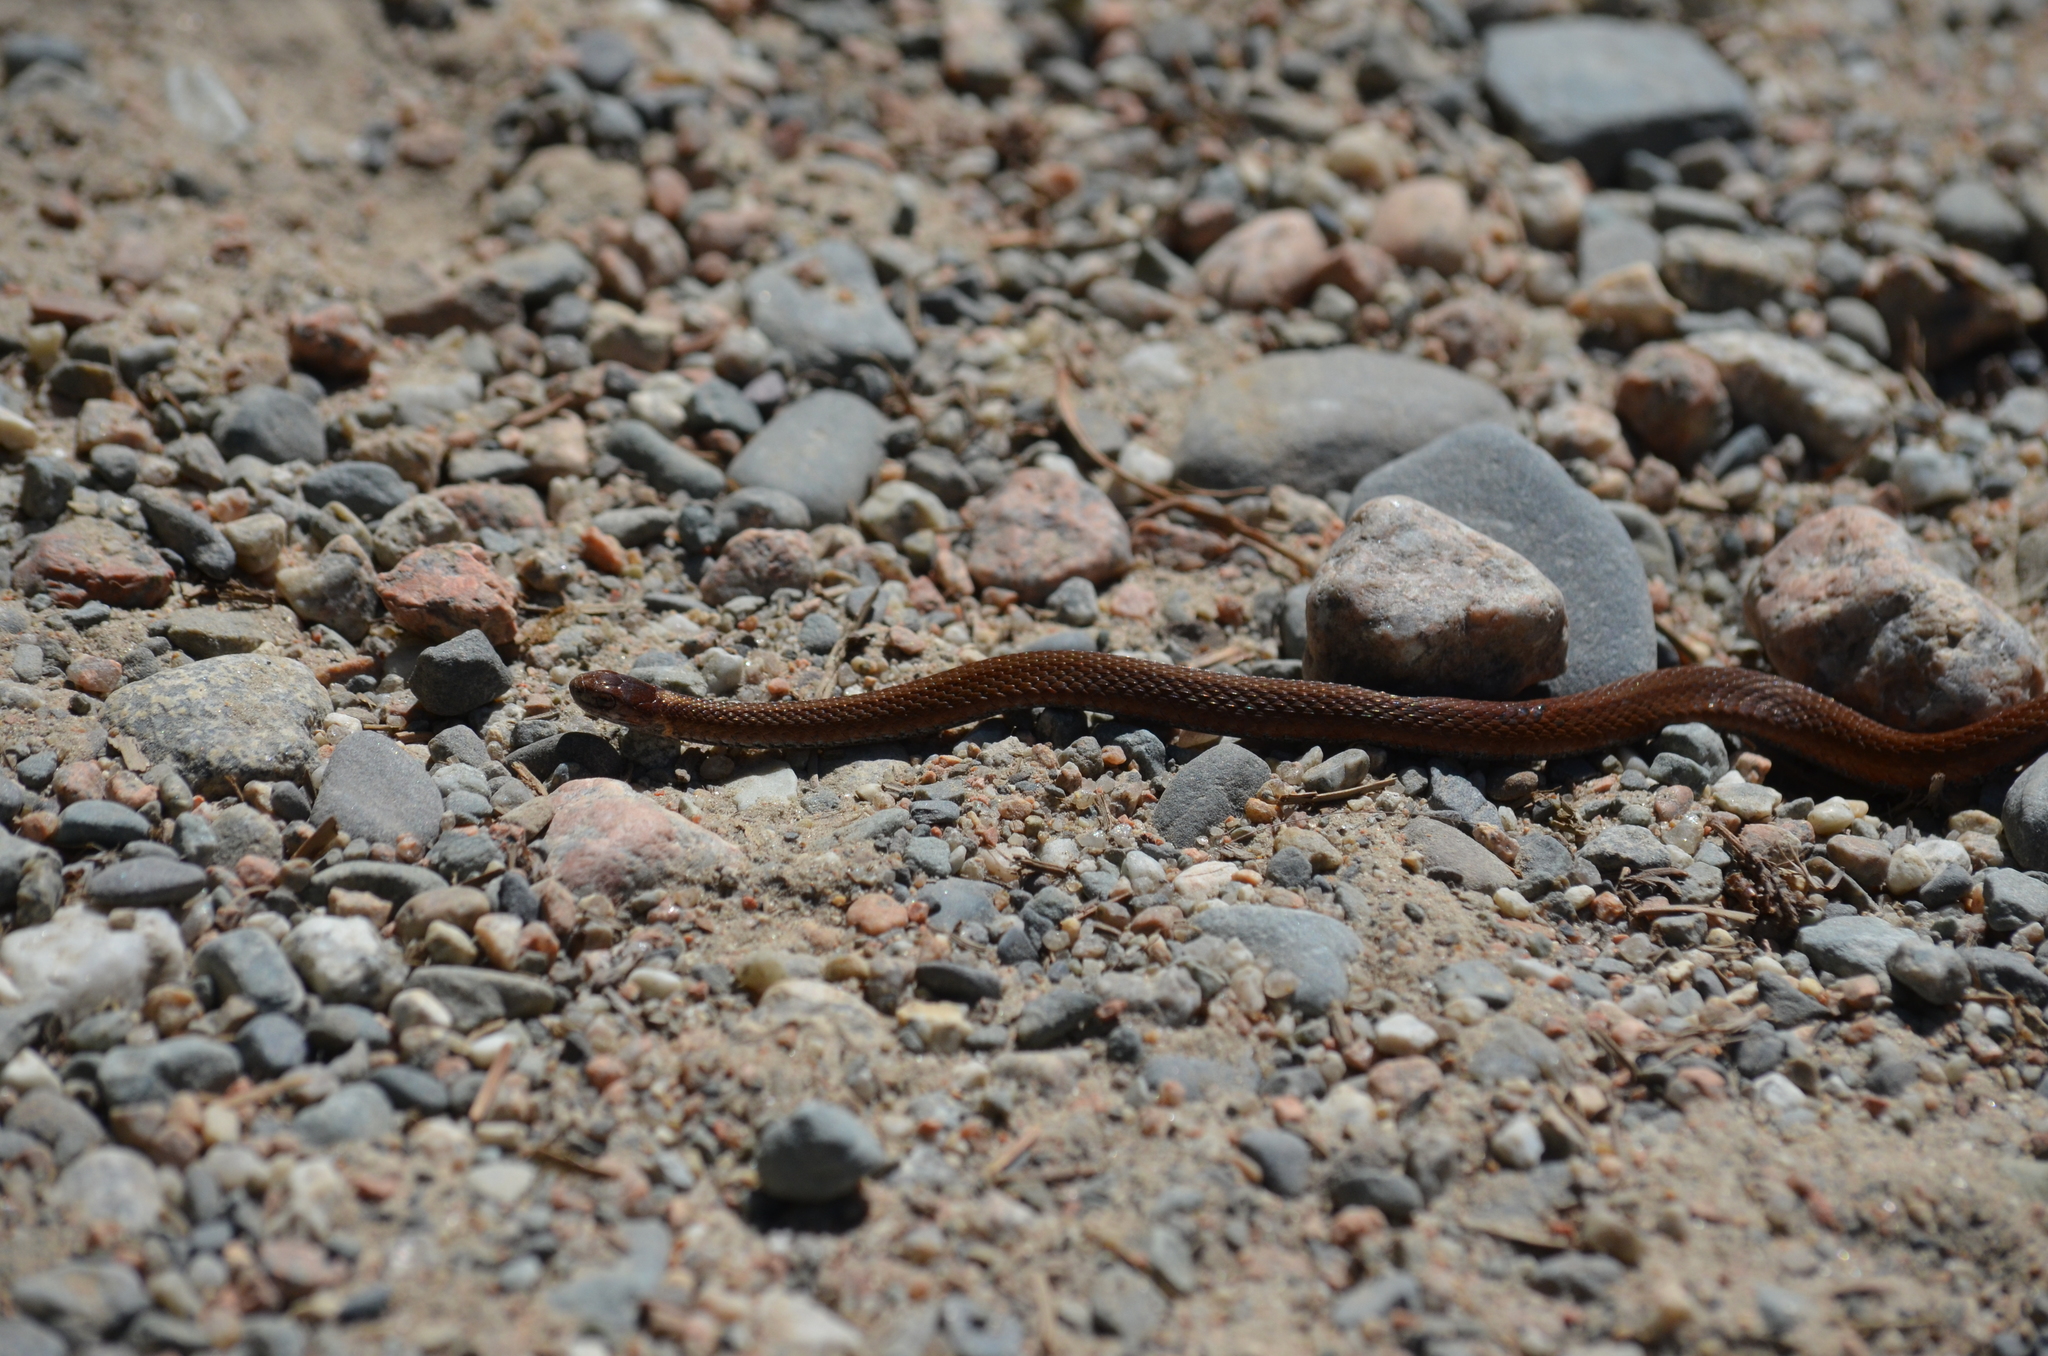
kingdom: Animalia
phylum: Chordata
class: Squamata
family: Colubridae
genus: Storeria
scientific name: Storeria occipitomaculata
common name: Redbelly snake
